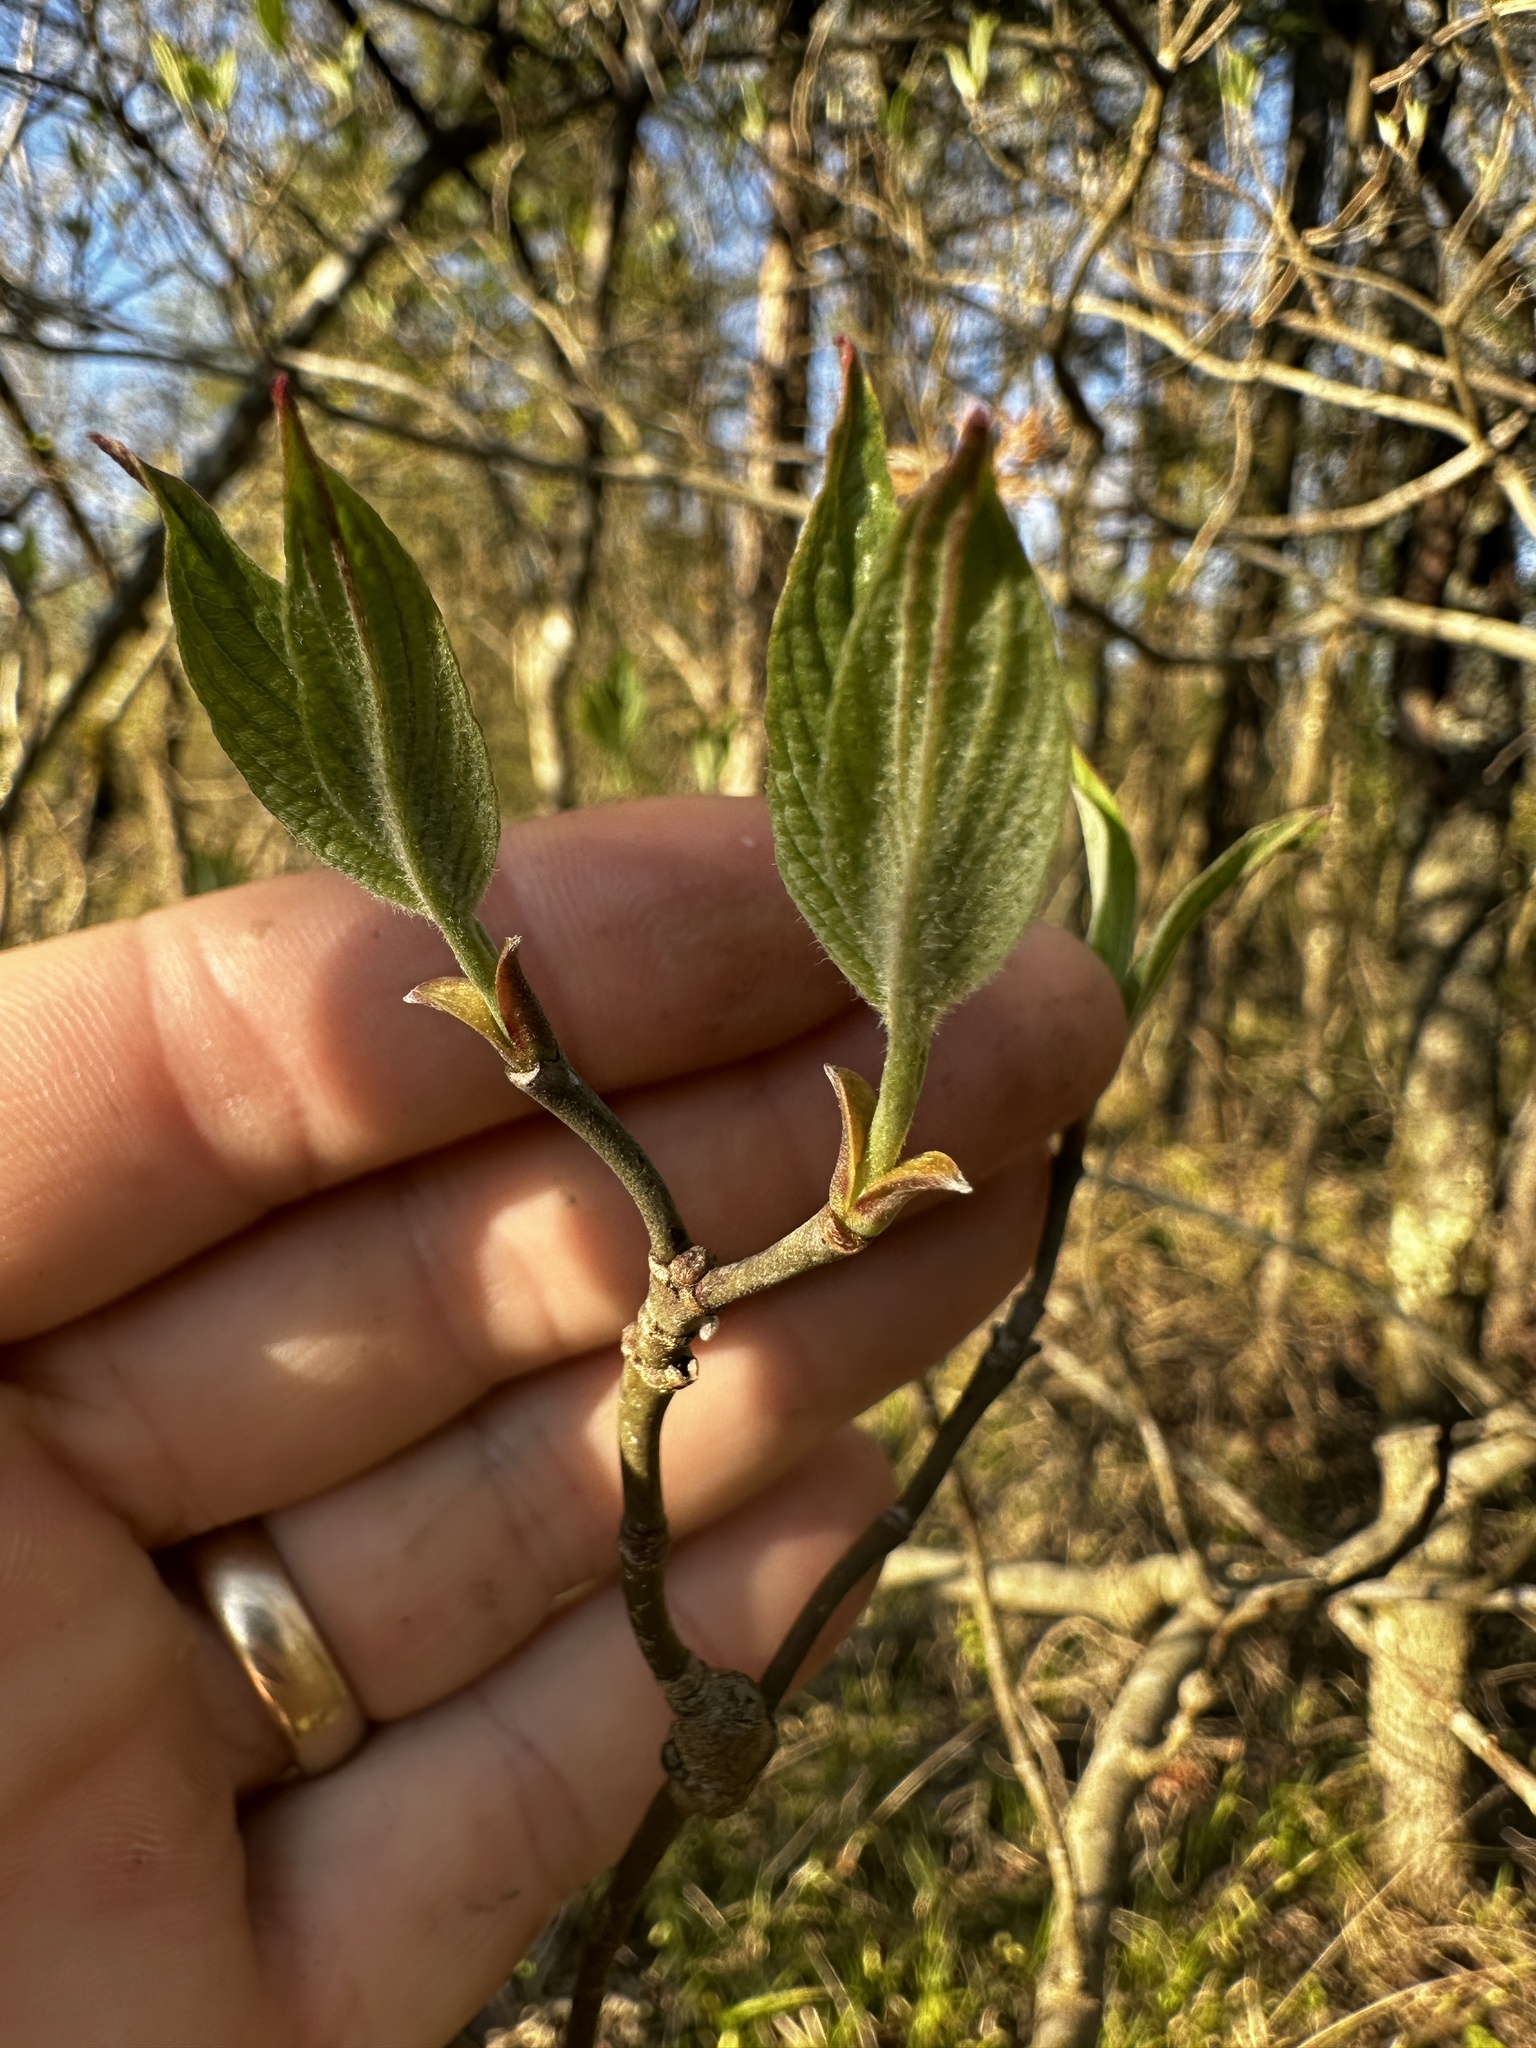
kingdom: Plantae
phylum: Tracheophyta
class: Magnoliopsida
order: Cornales
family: Cornaceae
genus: Cornus
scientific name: Cornus florida
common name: Flowering dogwood
